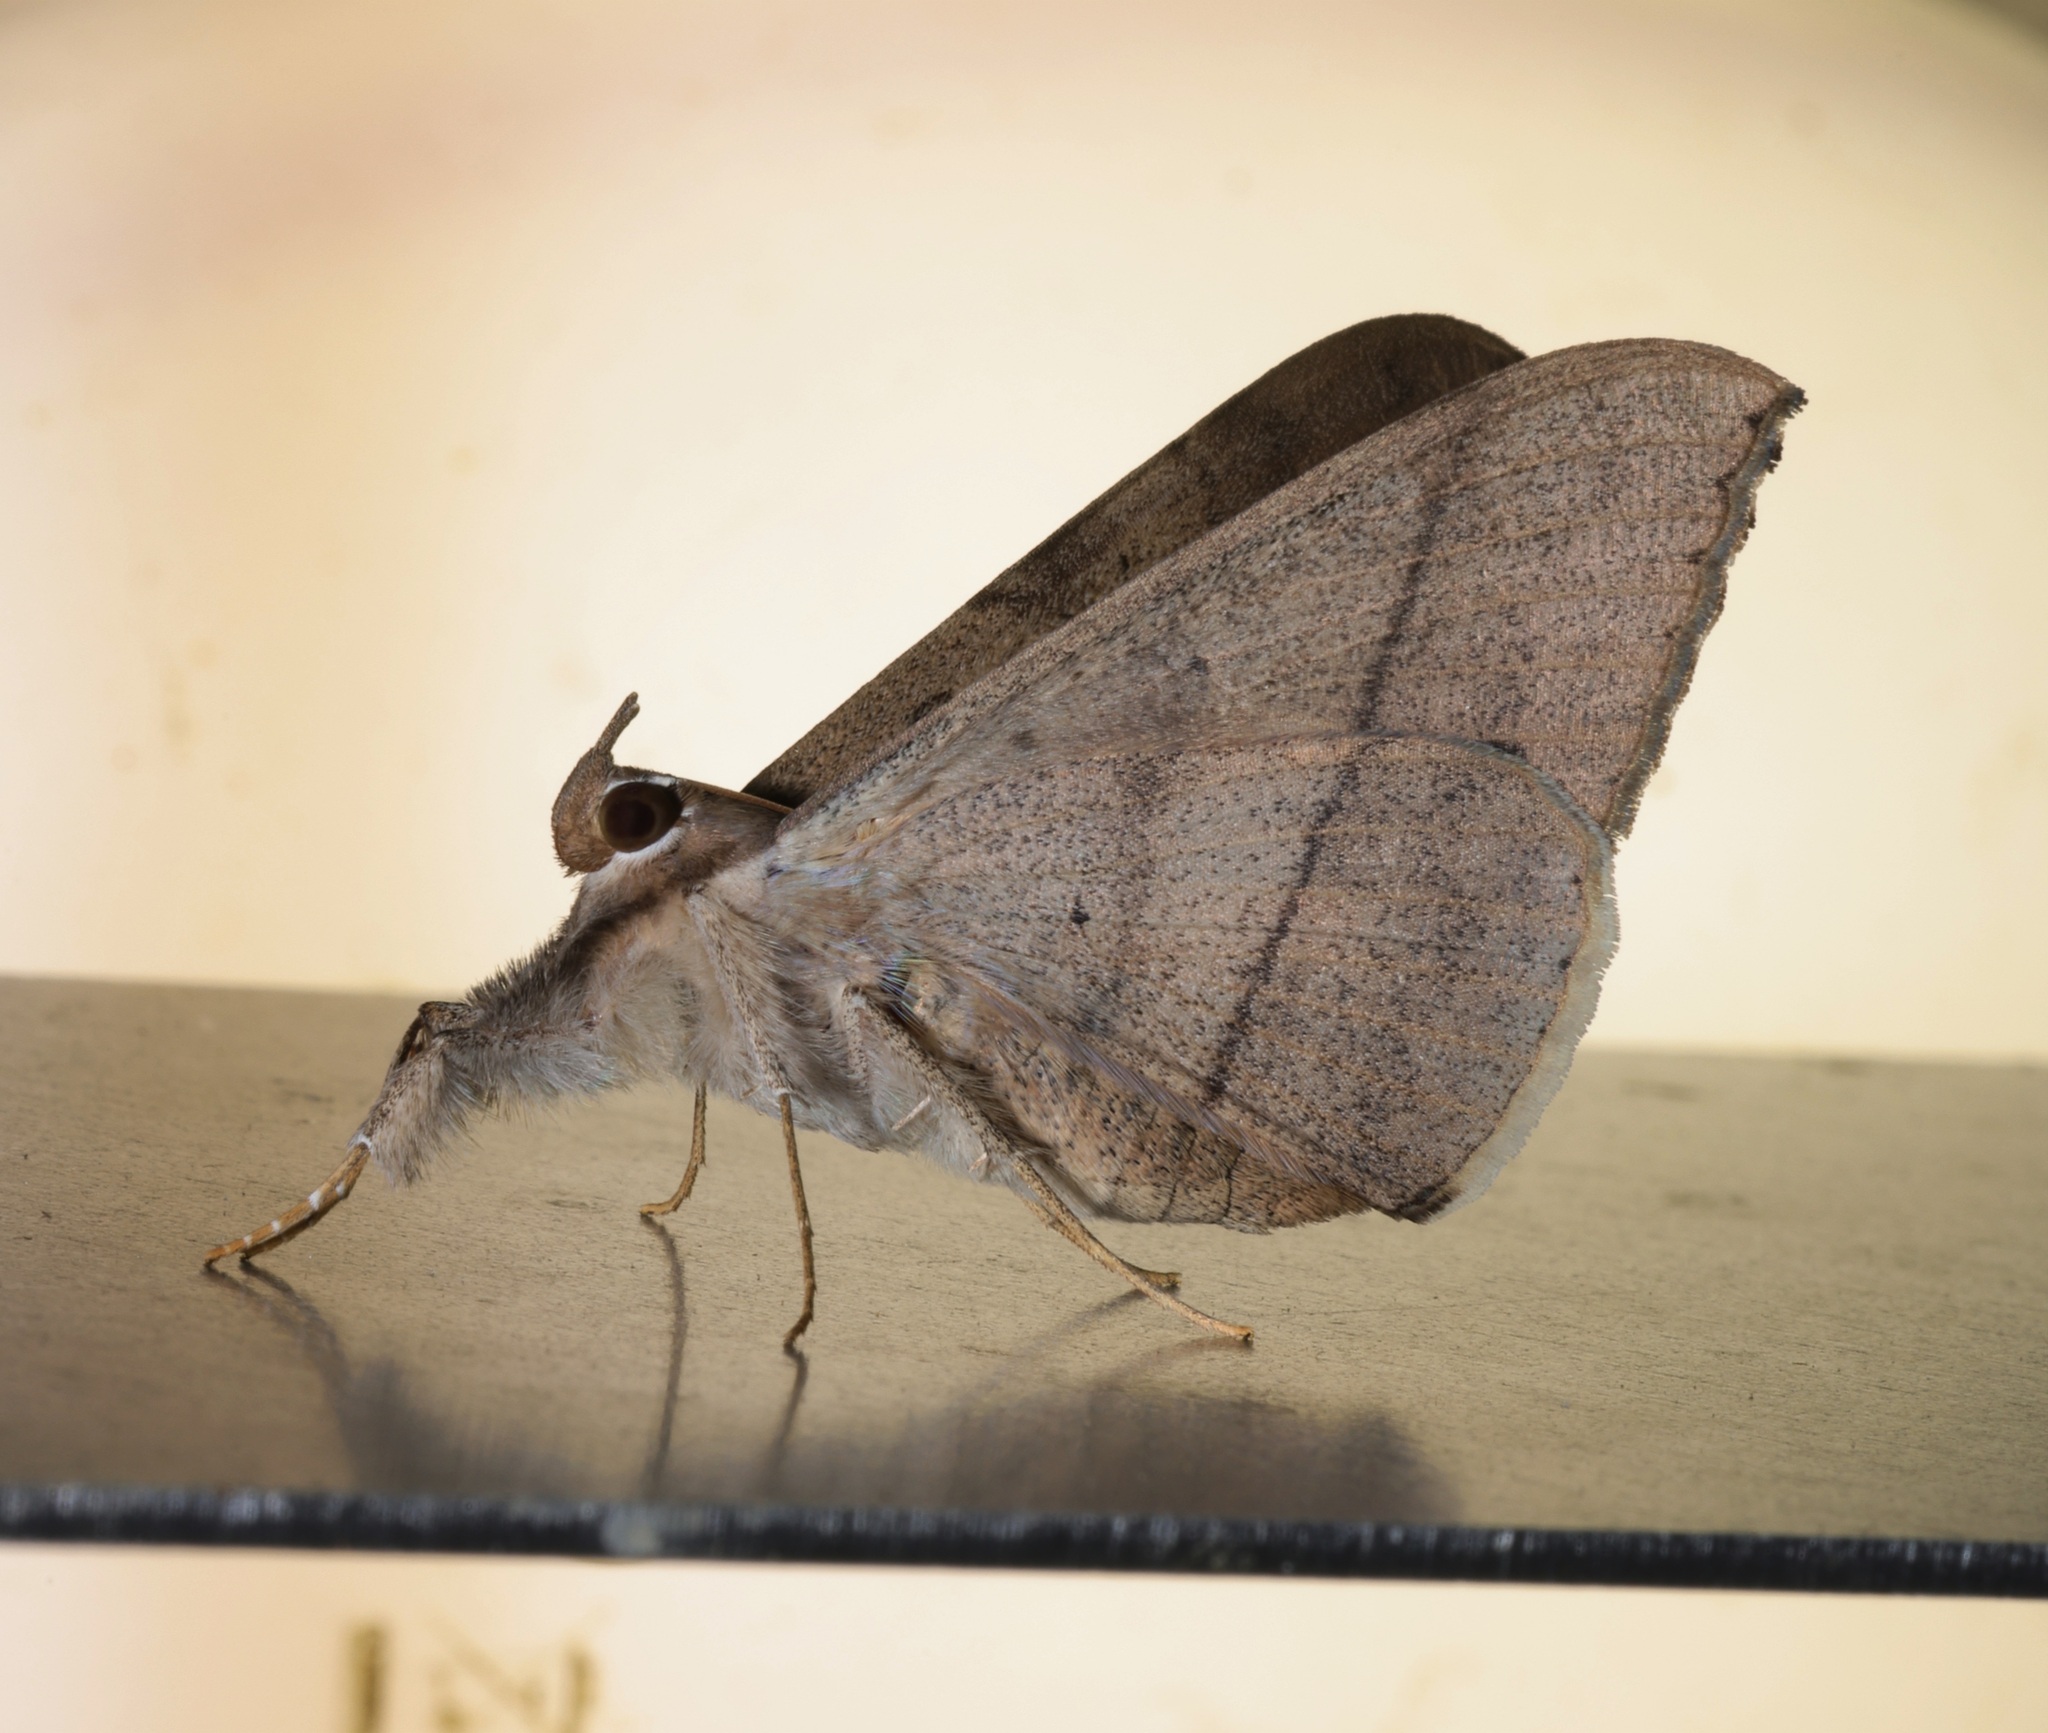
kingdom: Animalia
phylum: Arthropoda
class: Insecta
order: Lepidoptera
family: Erebidae
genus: Oxyodes
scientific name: Oxyodes scrobiculata
